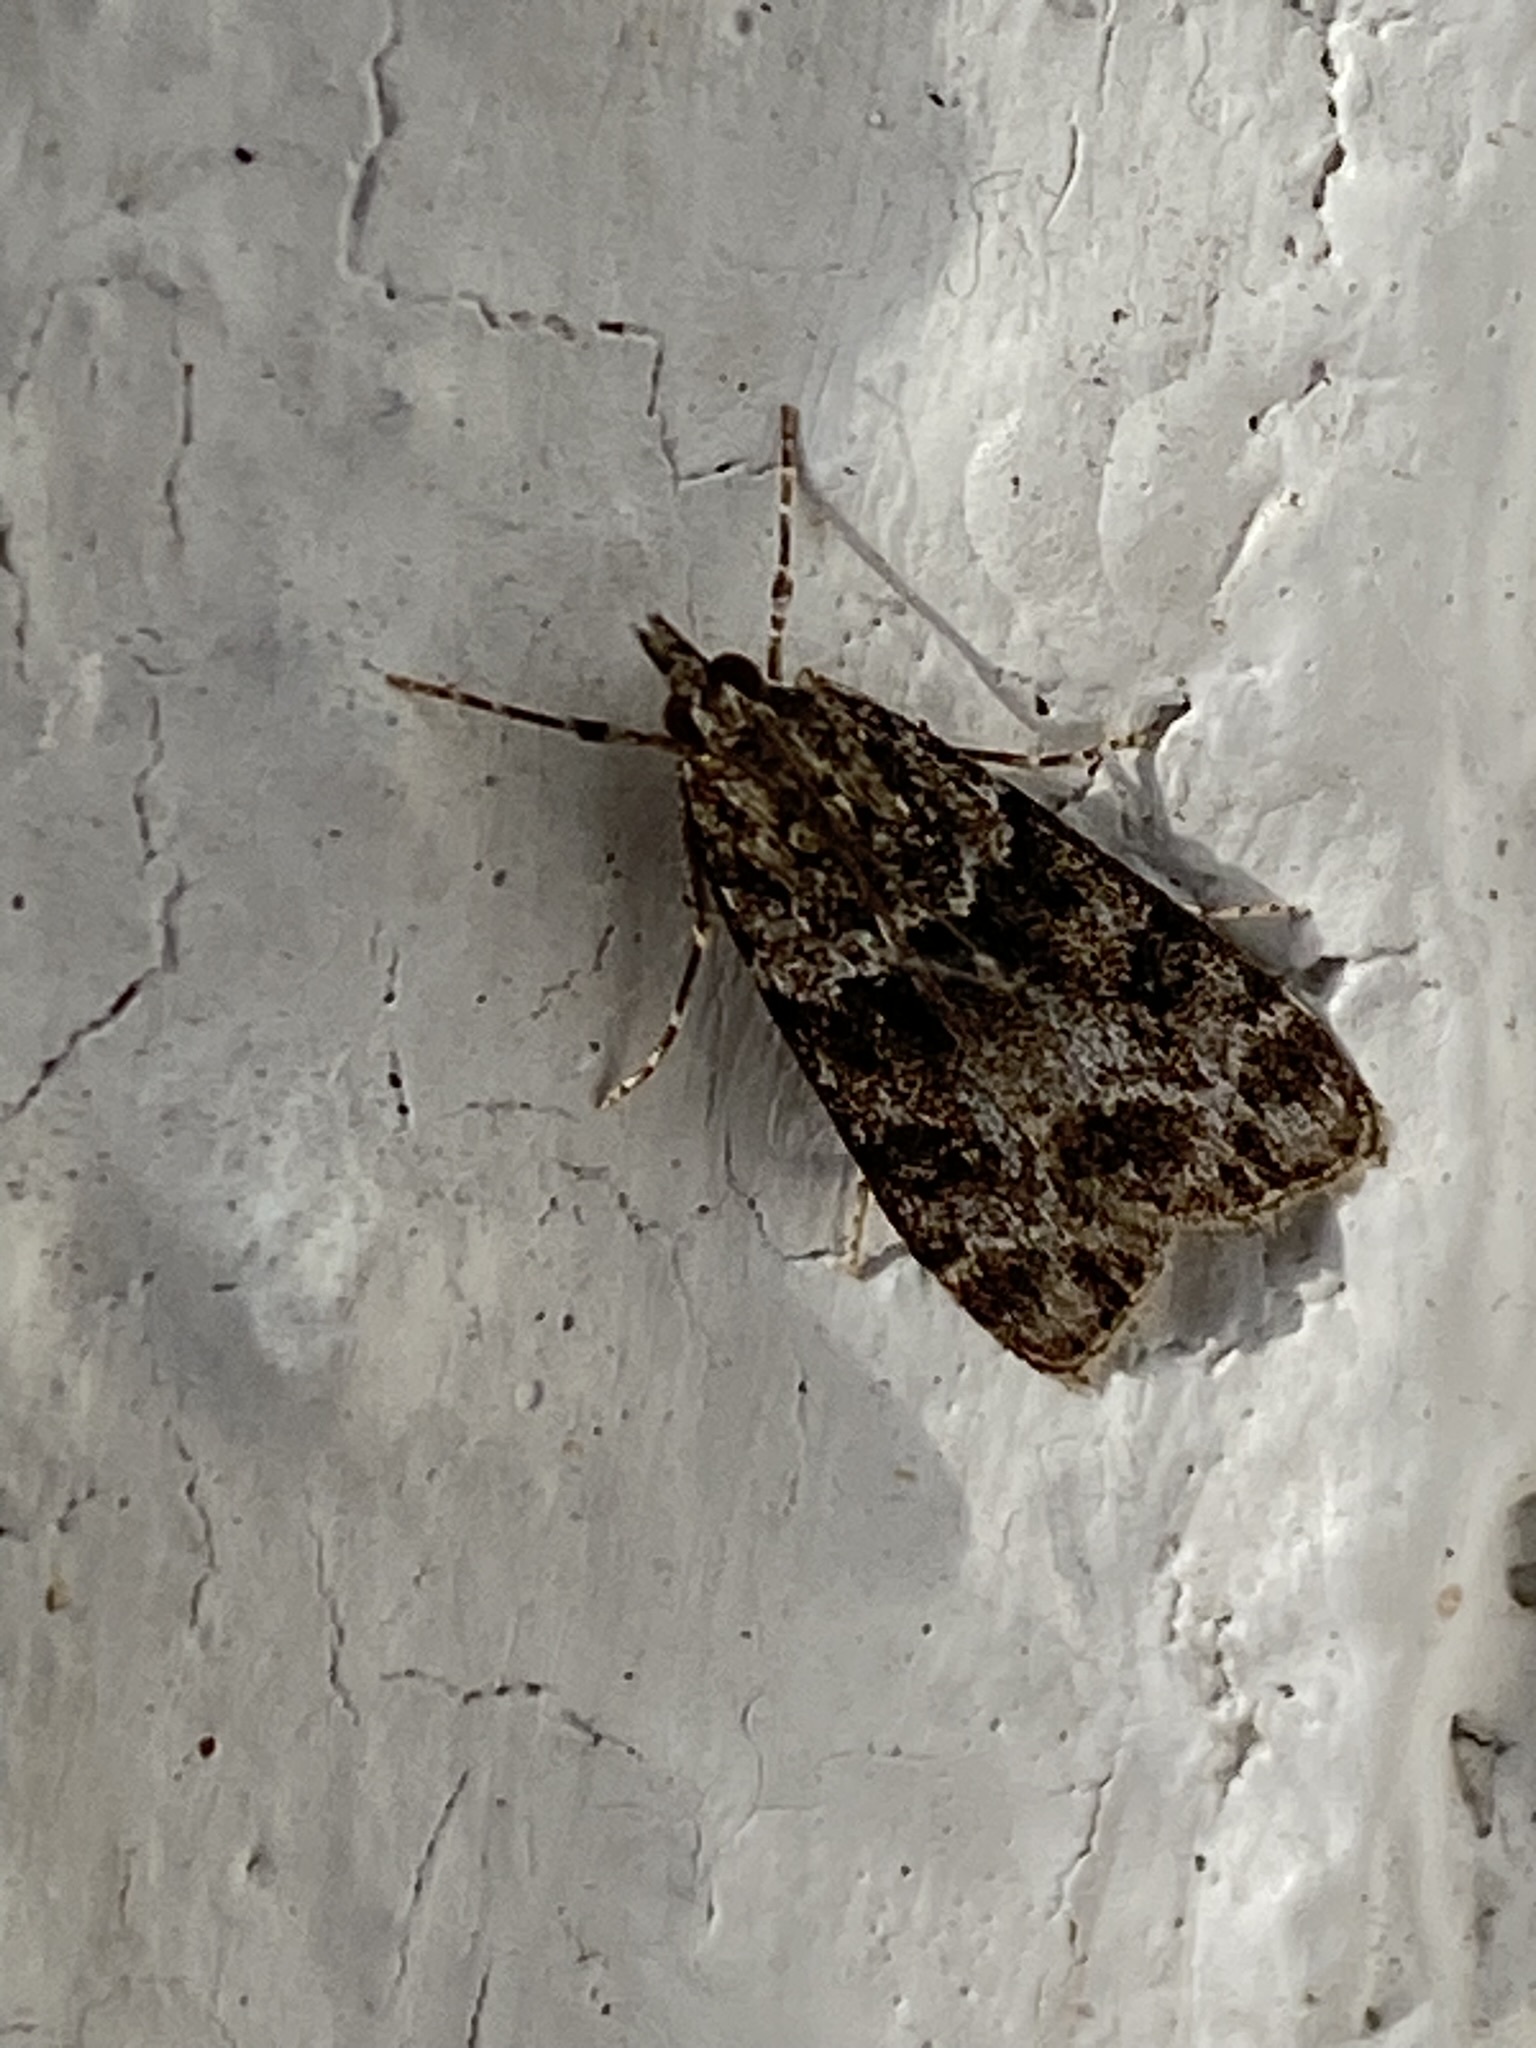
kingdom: Animalia
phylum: Arthropoda
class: Insecta
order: Lepidoptera
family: Crambidae
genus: Eudonia
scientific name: Eudonia mercurella
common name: Small grey
